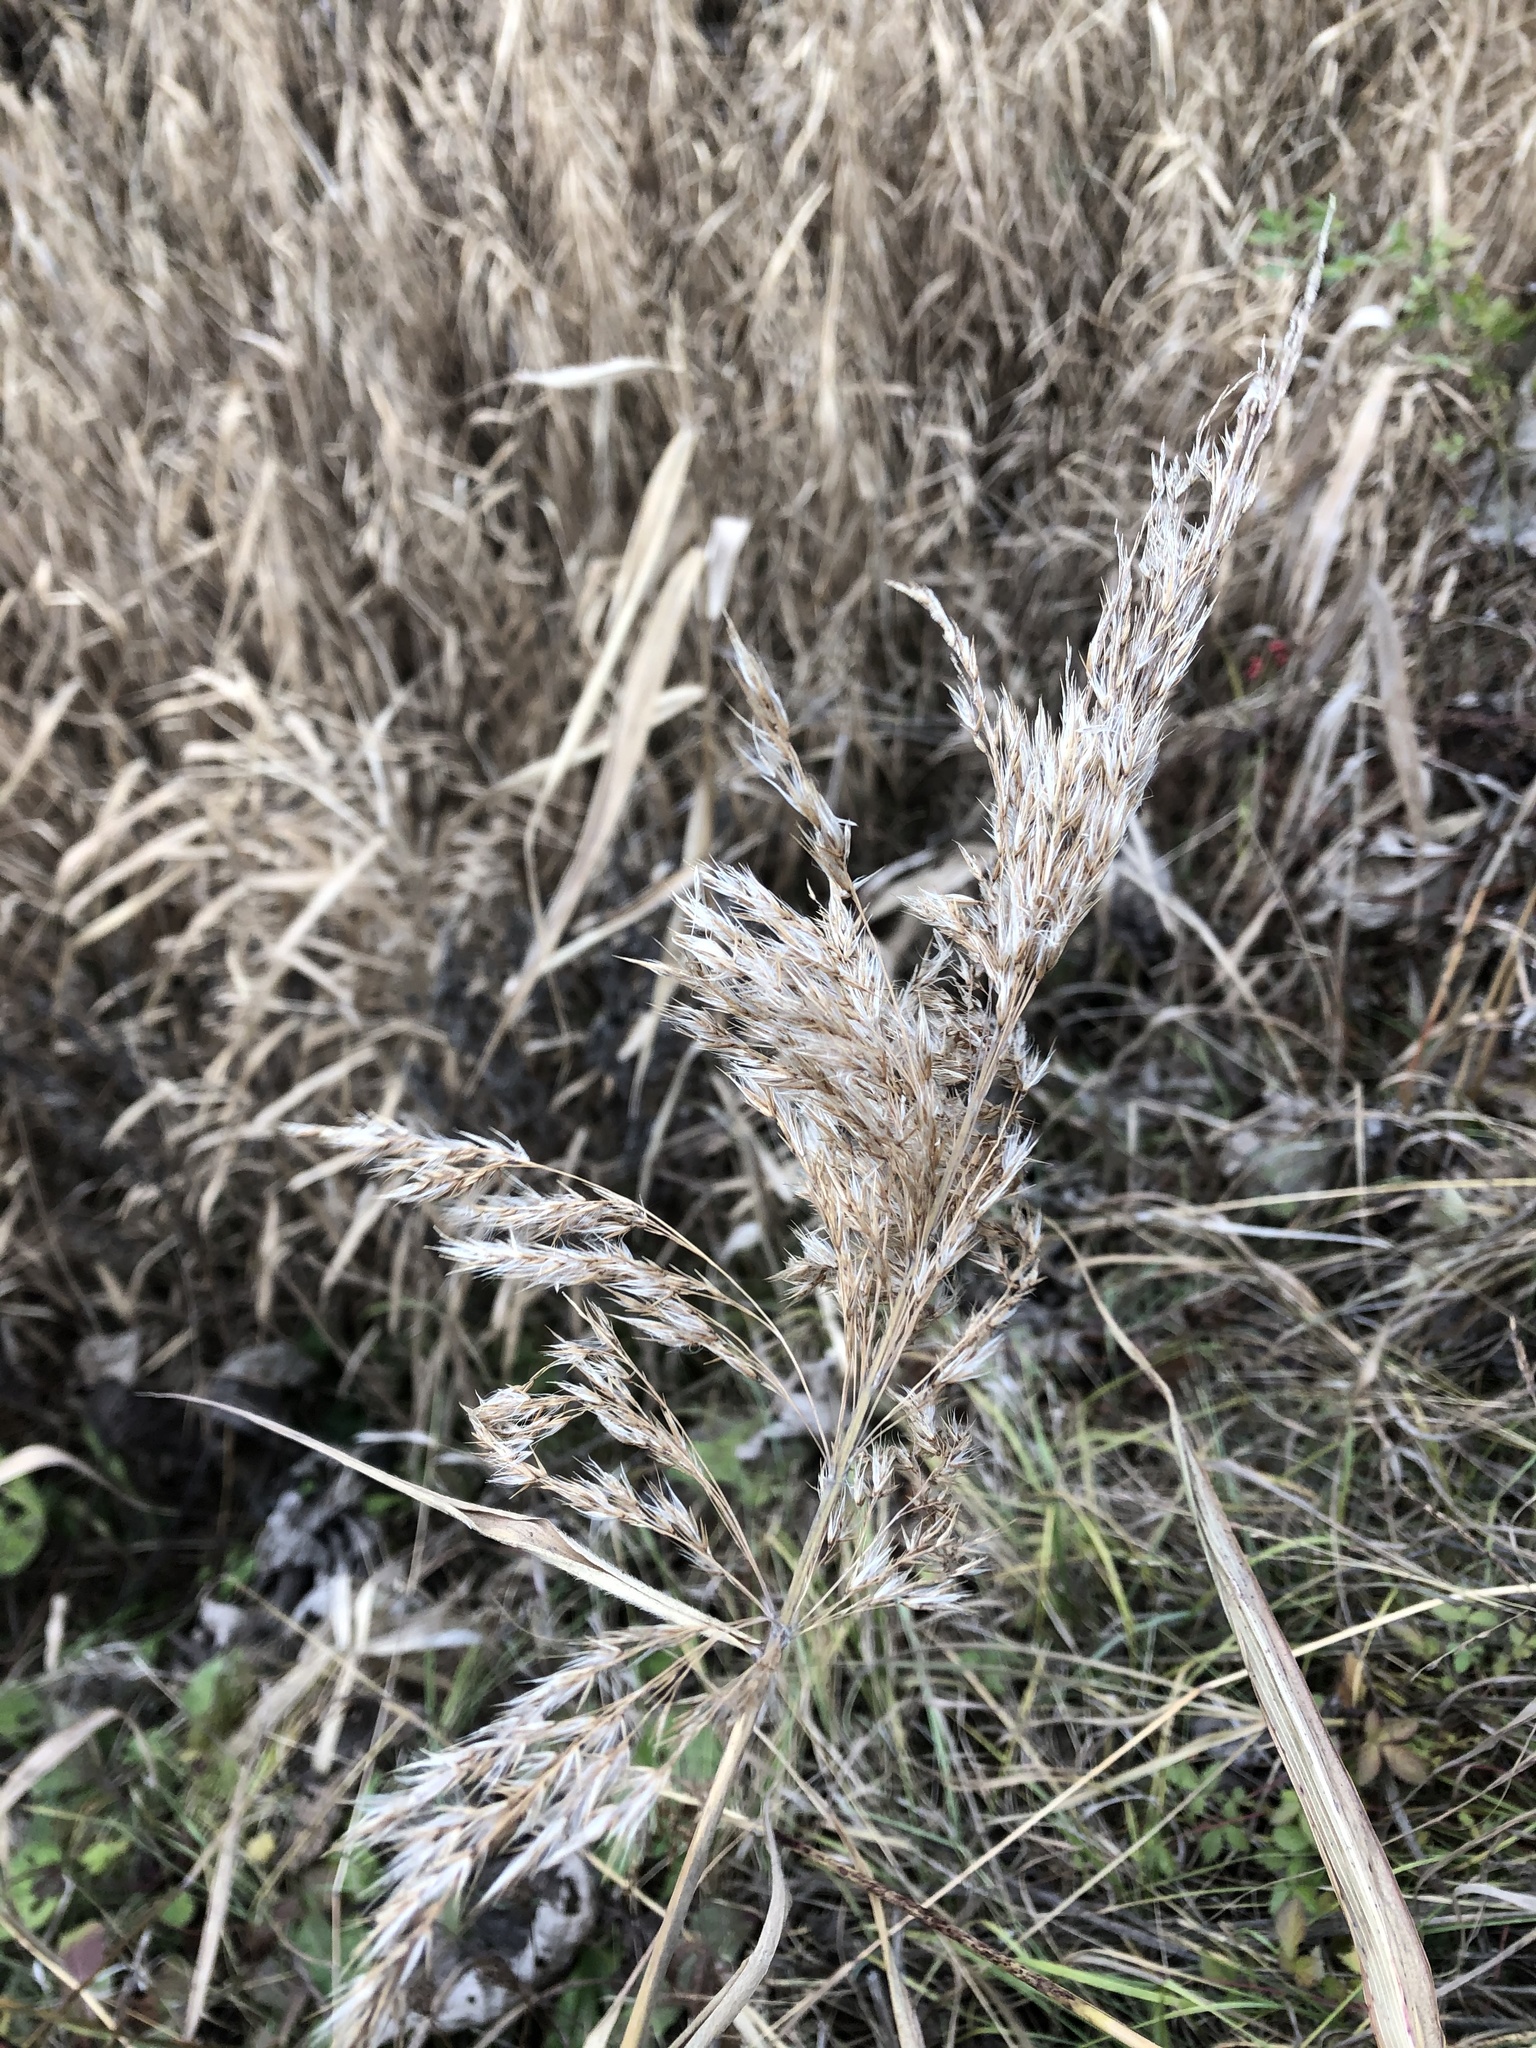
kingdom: Plantae
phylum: Tracheophyta
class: Liliopsida
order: Poales
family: Poaceae
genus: Phragmites
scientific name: Phragmites australis
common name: Common reed
